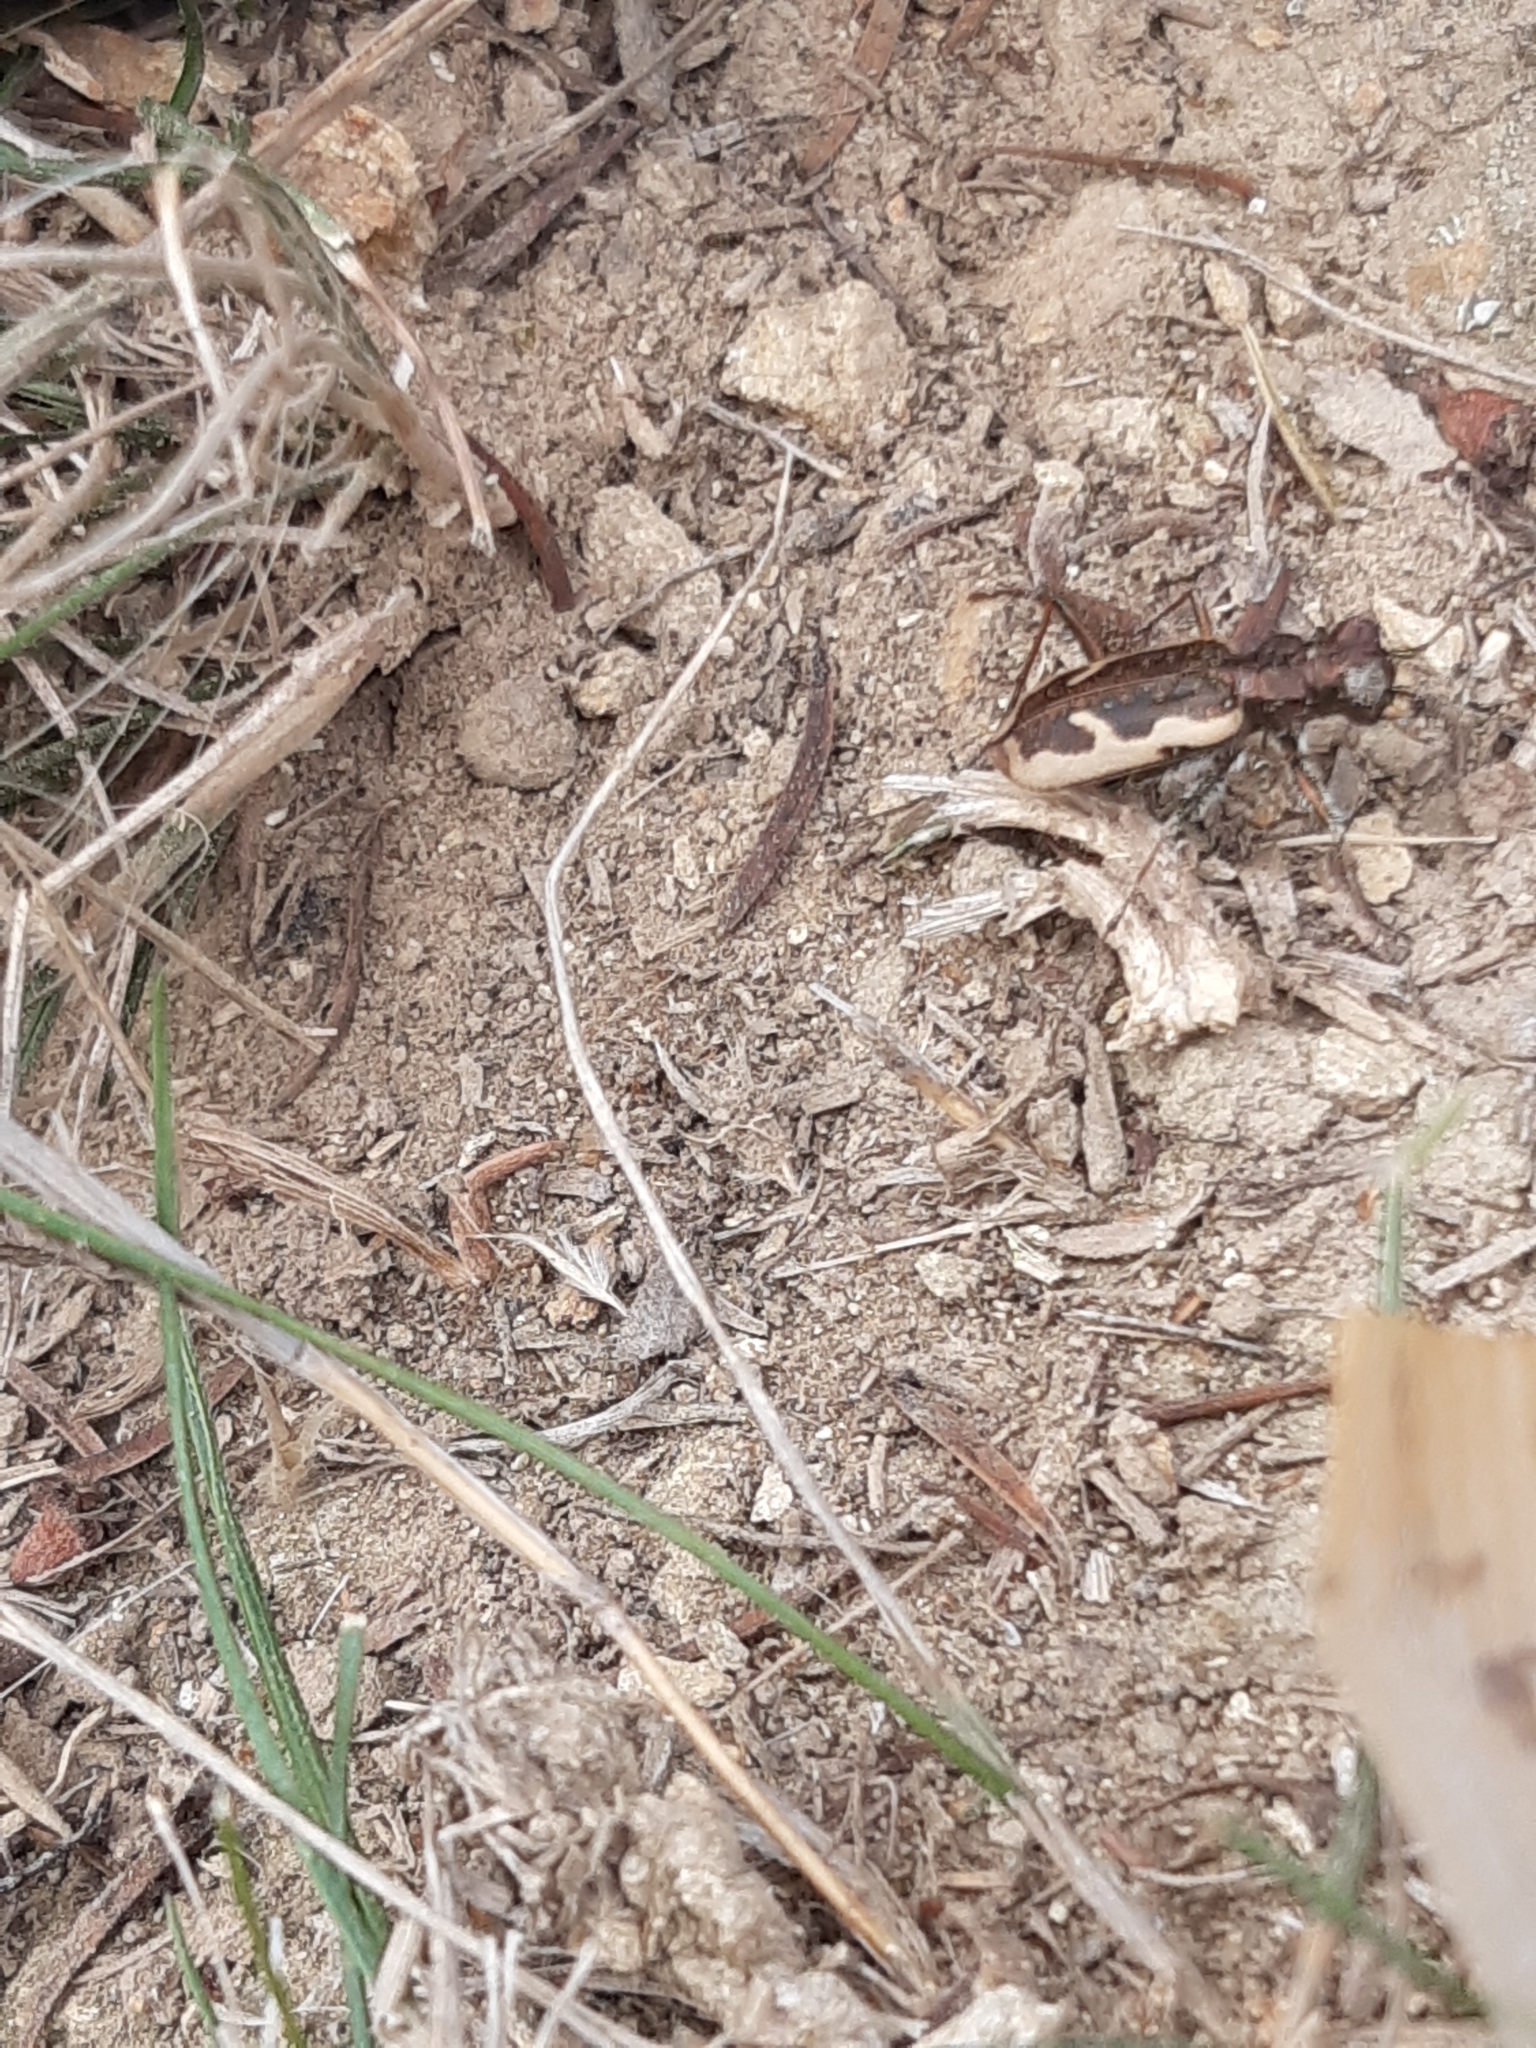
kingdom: Animalia
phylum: Arthropoda
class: Insecta
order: Coleoptera
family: Carabidae
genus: Neocicindela
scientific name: Neocicindela latecincta
